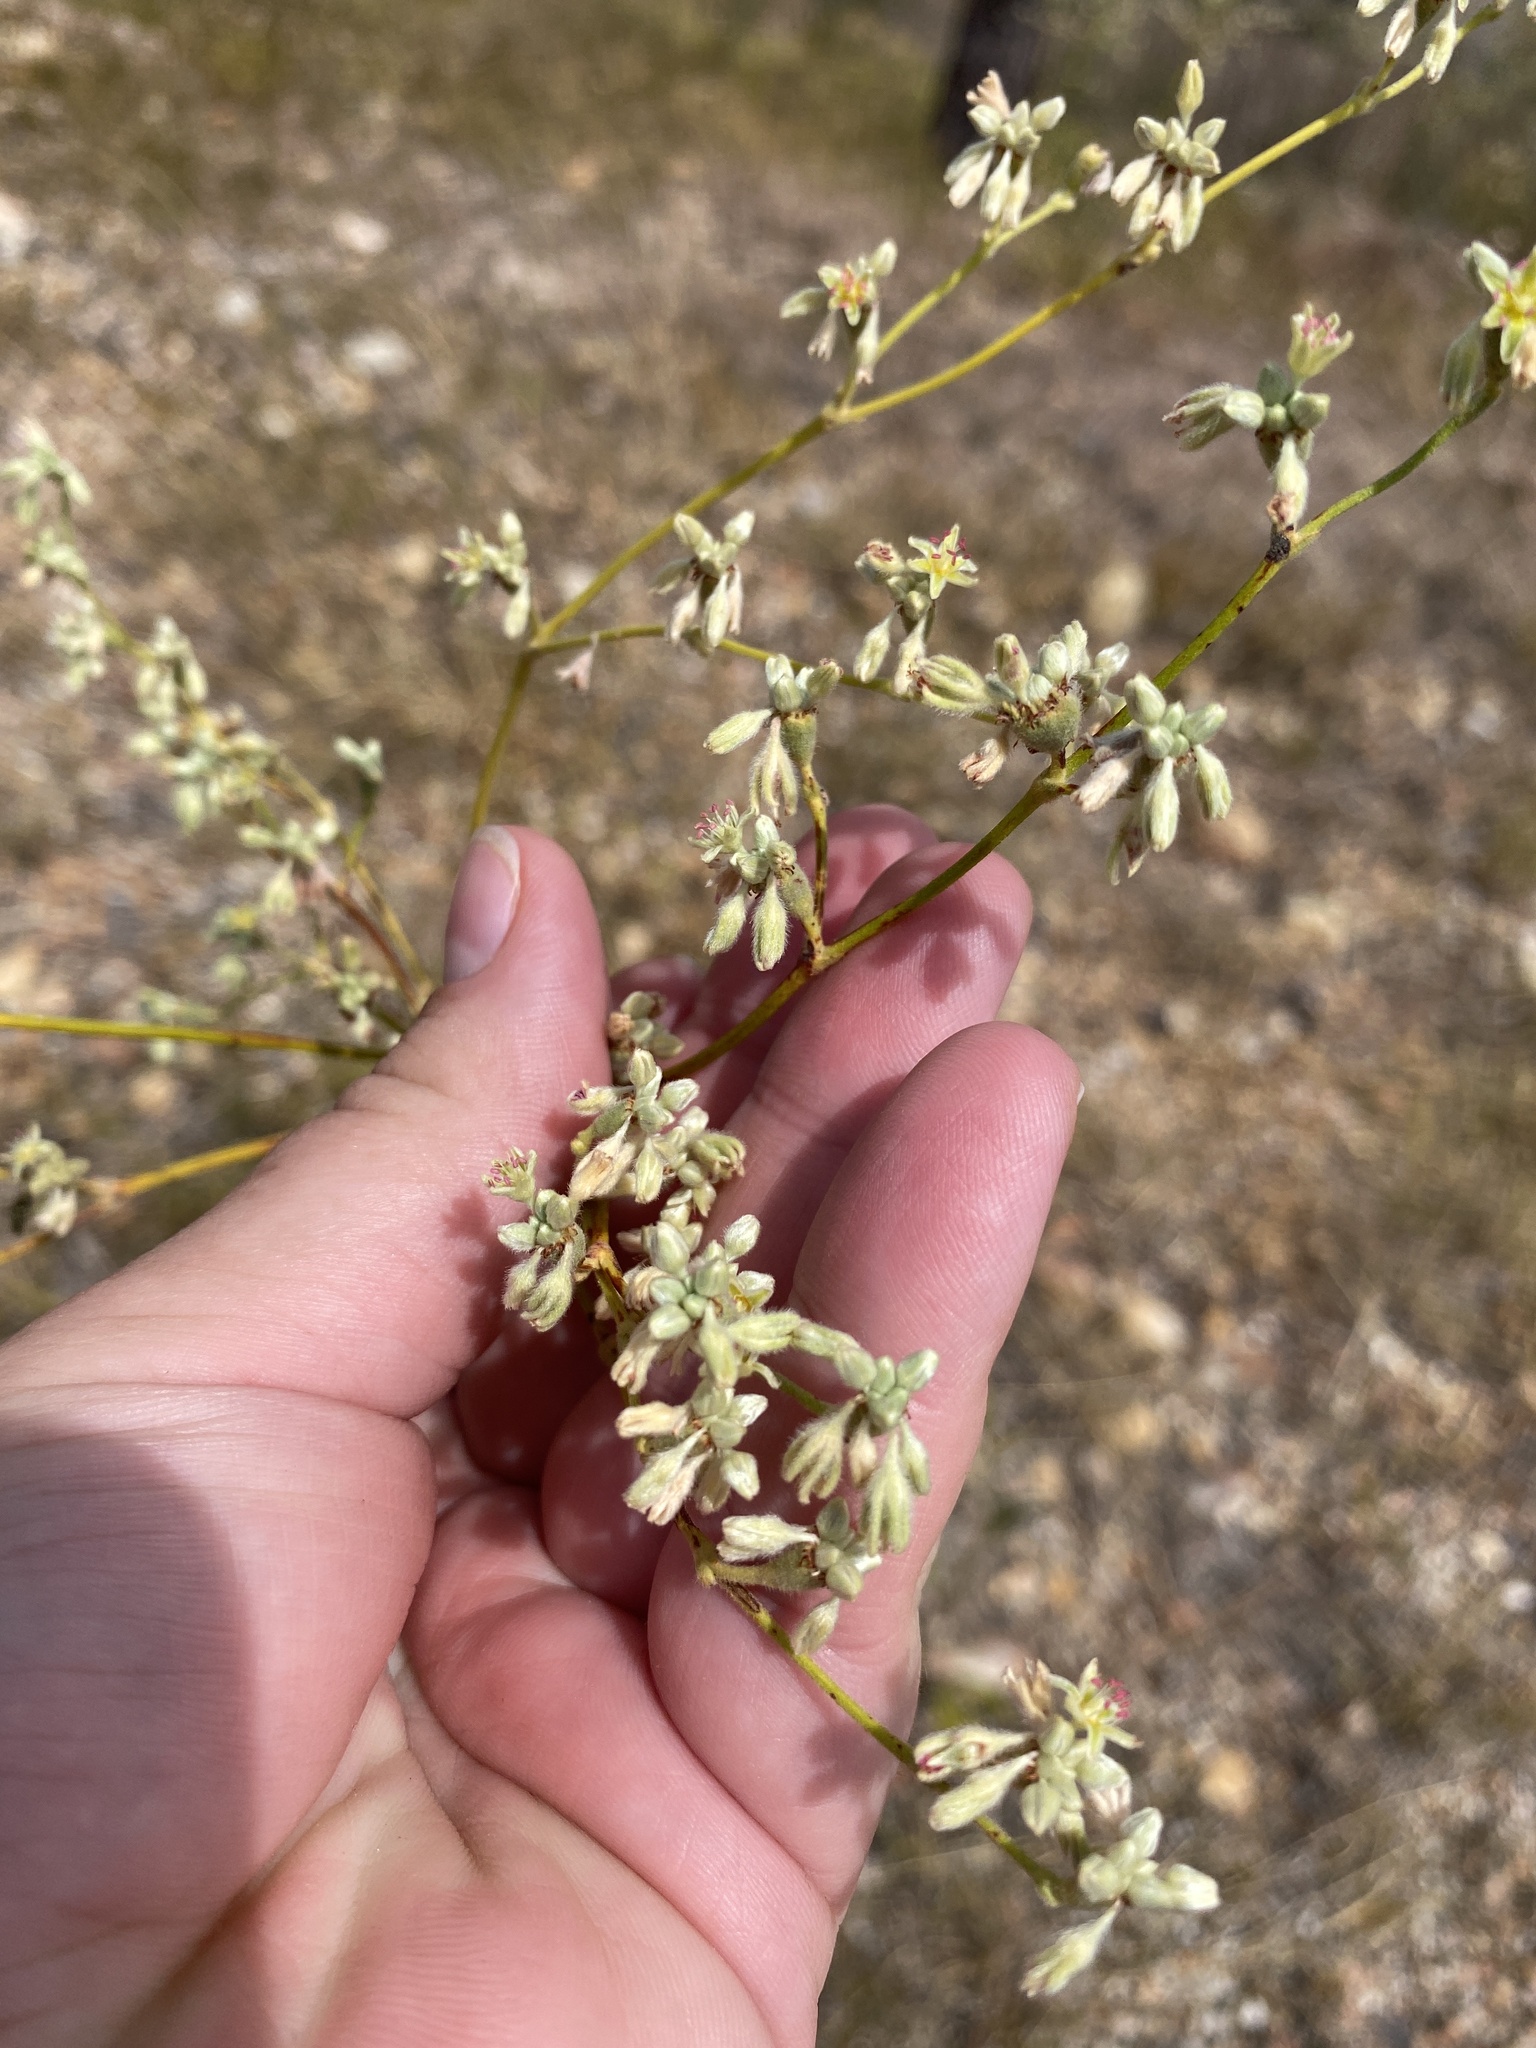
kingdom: Plantae
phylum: Tracheophyta
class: Magnoliopsida
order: Caryophyllales
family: Polygonaceae
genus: Eriogonum
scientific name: Eriogonum longifolium
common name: Longleaf wild buckwheat
